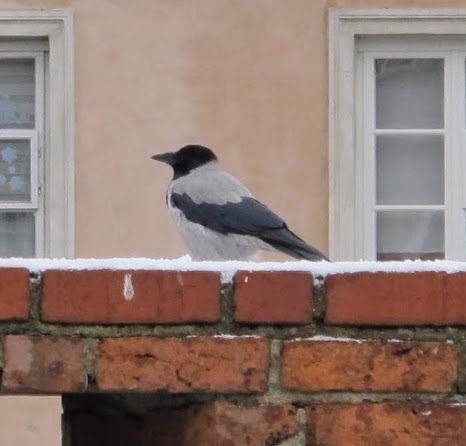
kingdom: Animalia
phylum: Chordata
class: Aves
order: Passeriformes
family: Corvidae
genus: Corvus
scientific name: Corvus cornix
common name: Hooded crow
